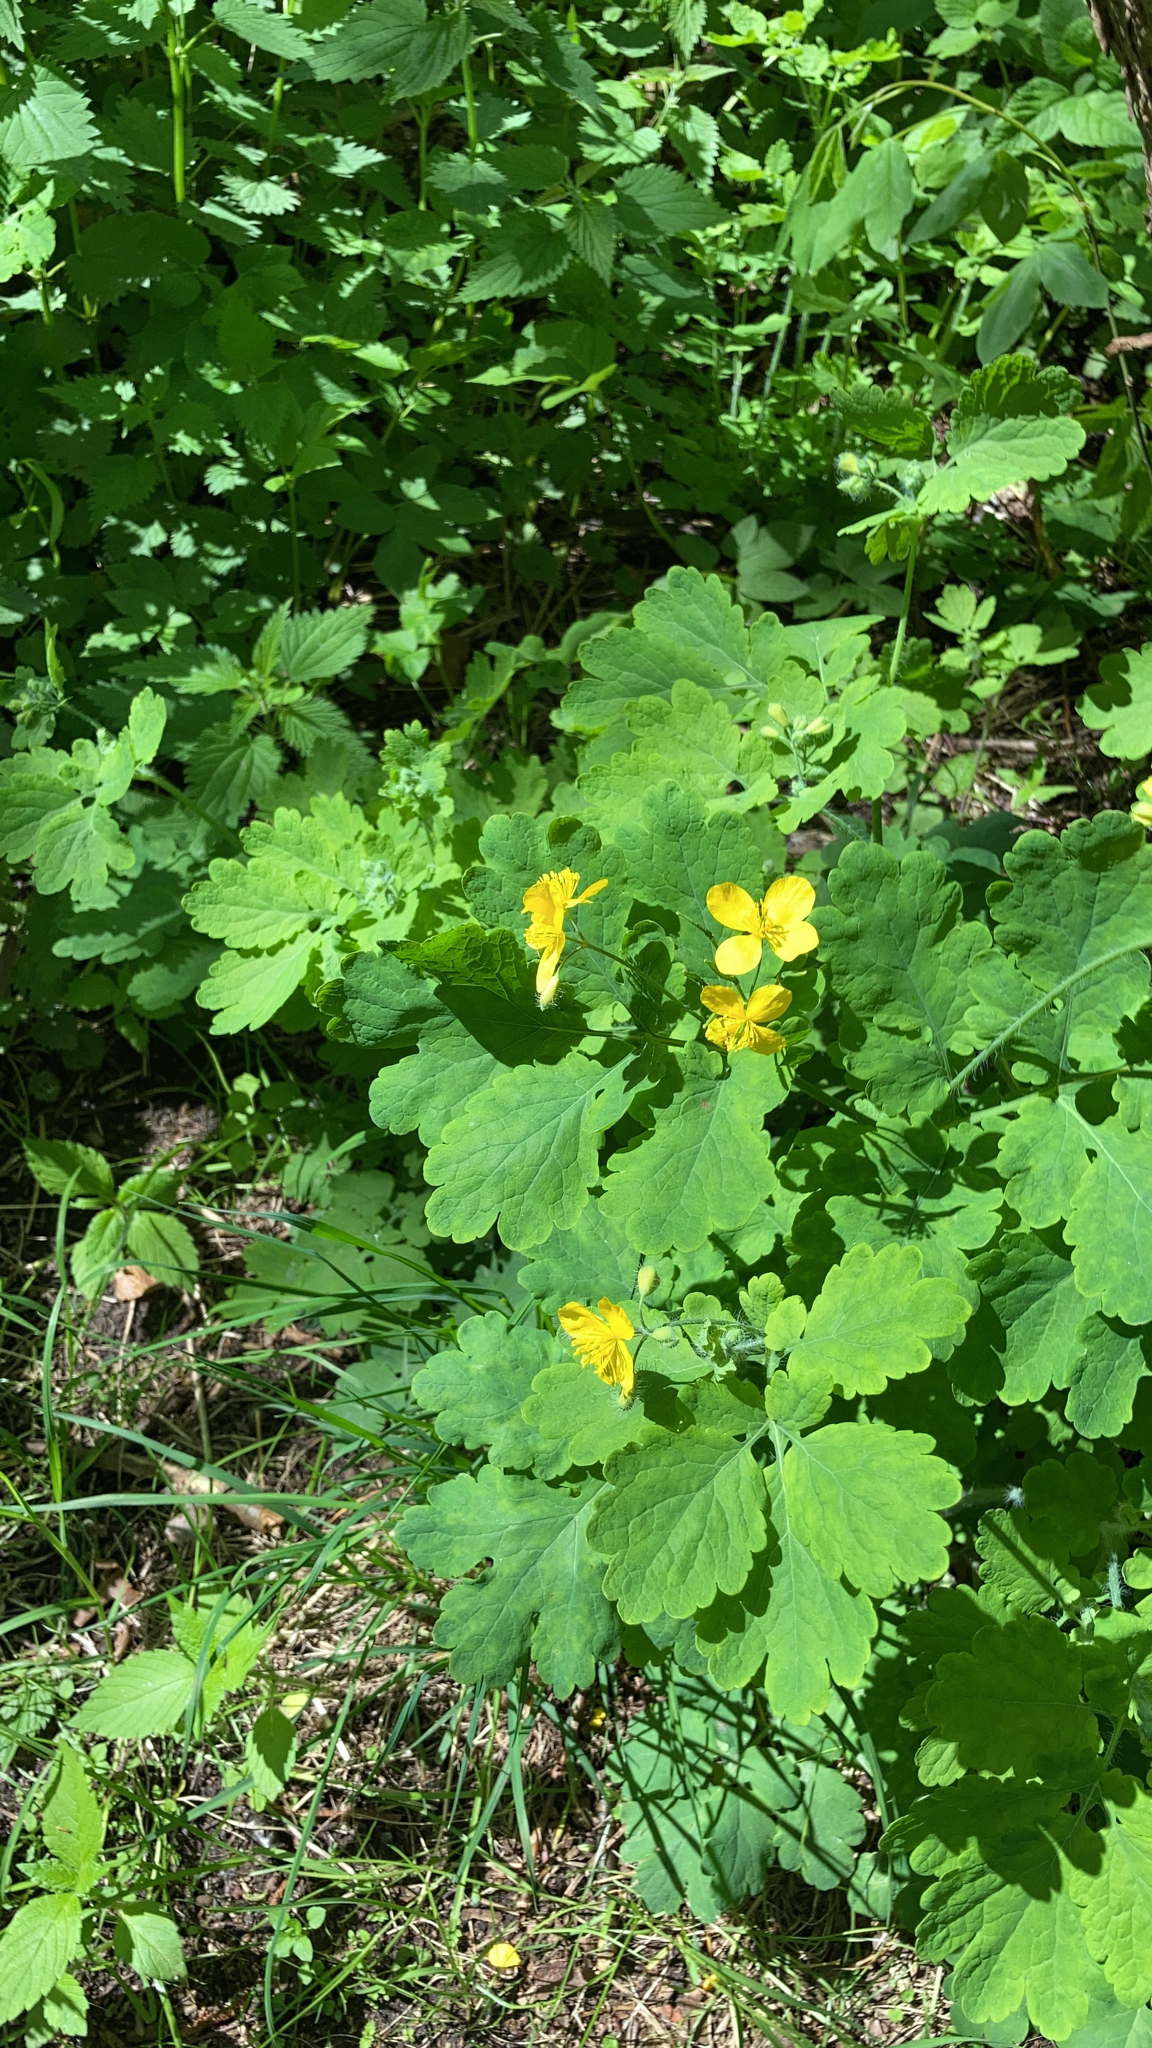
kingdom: Plantae
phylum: Tracheophyta
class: Magnoliopsida
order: Ranunculales
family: Papaveraceae
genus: Chelidonium
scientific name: Chelidonium majus
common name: Greater celandine
